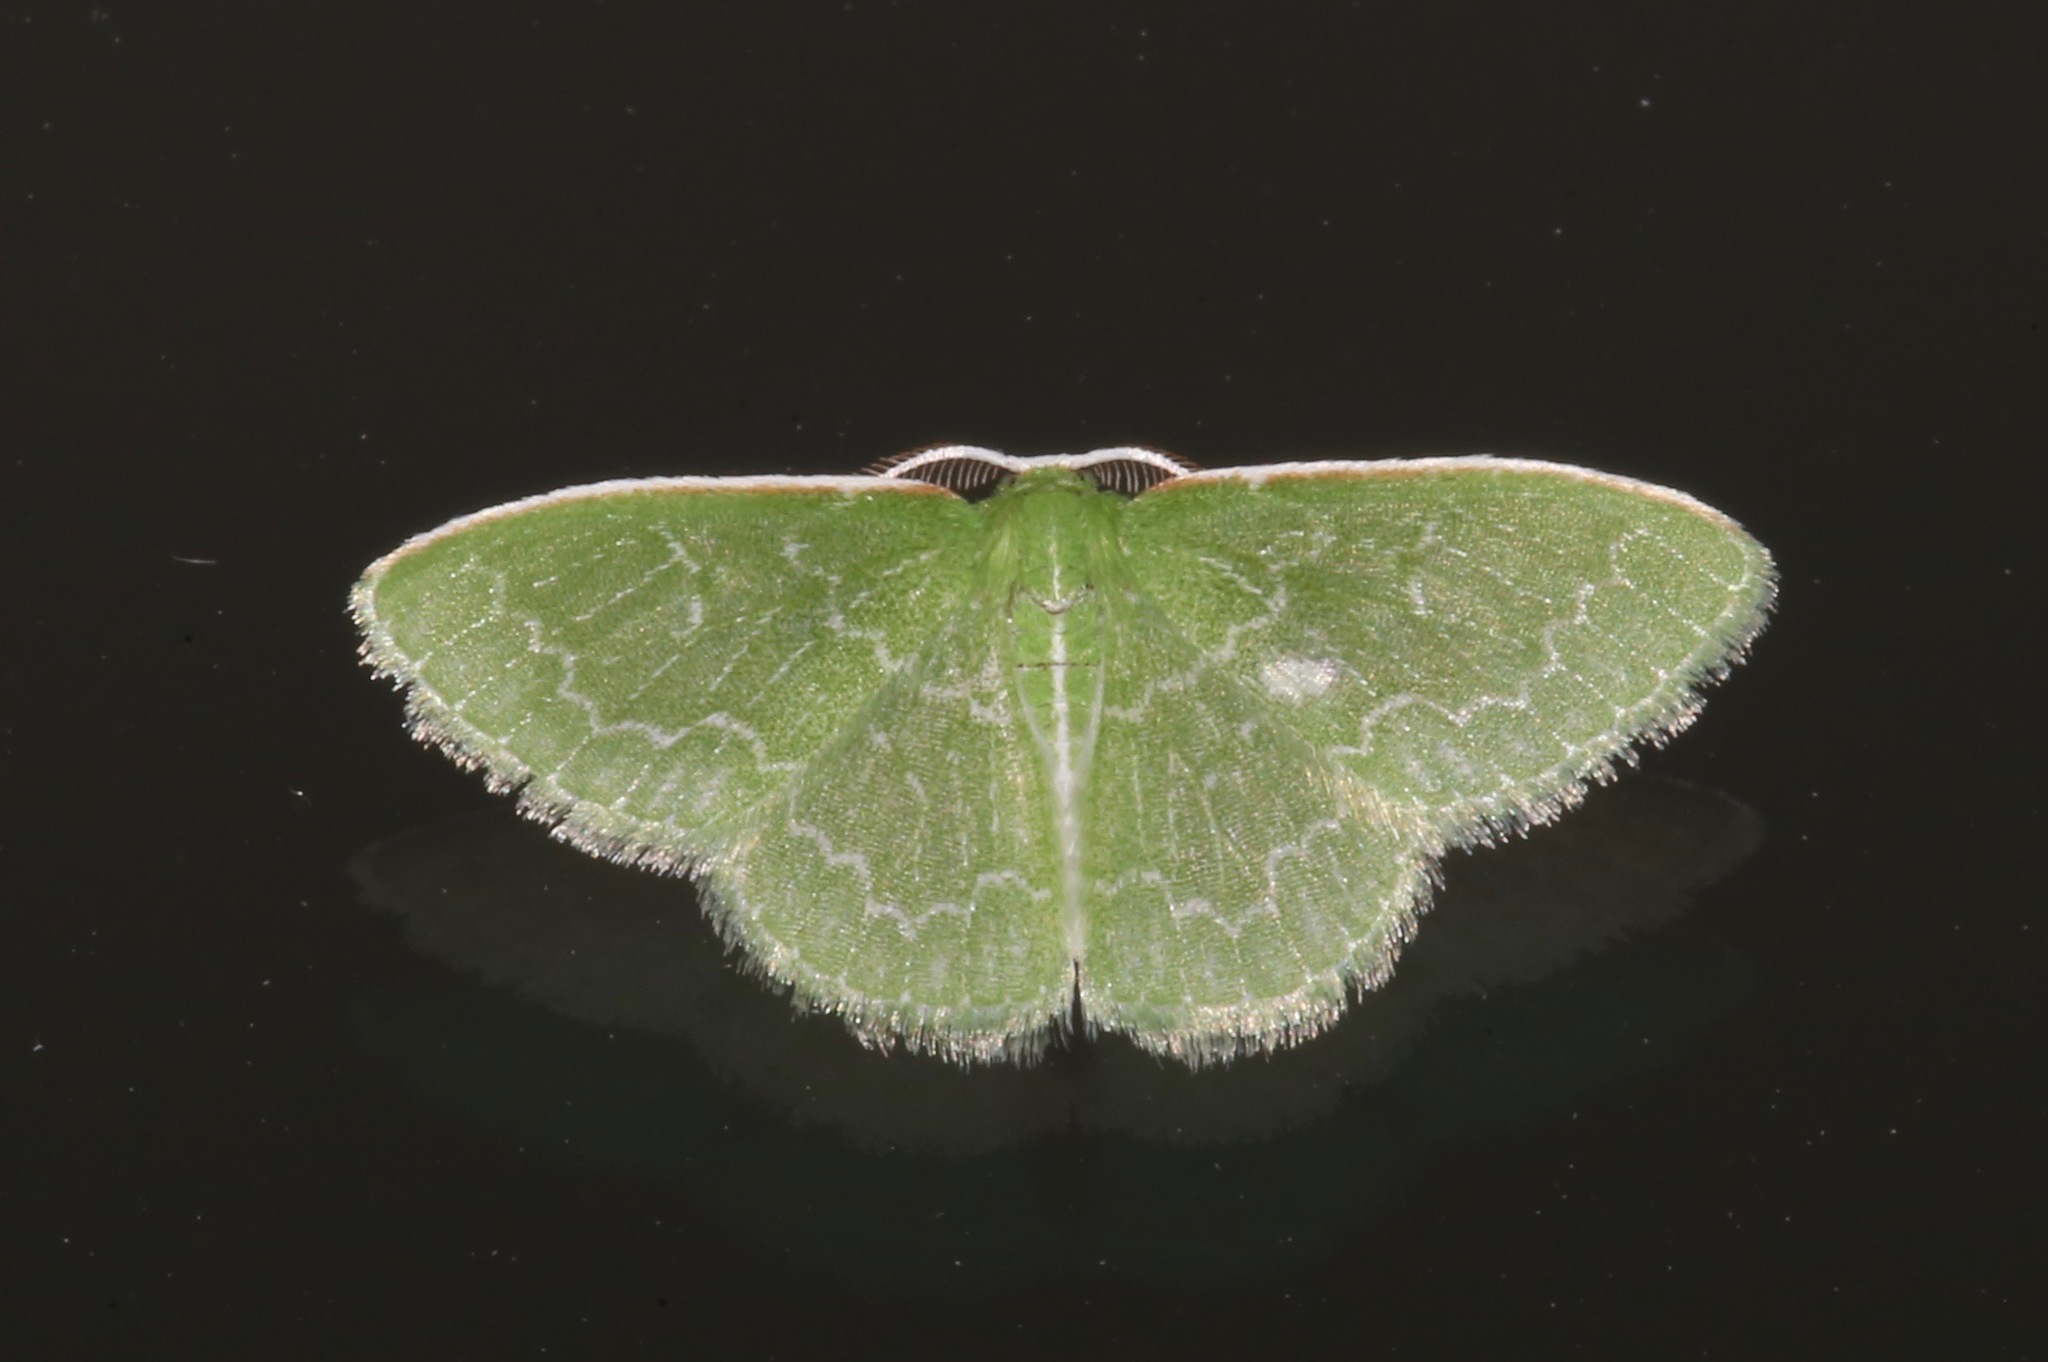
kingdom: Animalia
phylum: Arthropoda
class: Insecta
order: Lepidoptera
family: Geometridae
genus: Synchlora
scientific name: Synchlora frondaria
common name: Southern emerald
